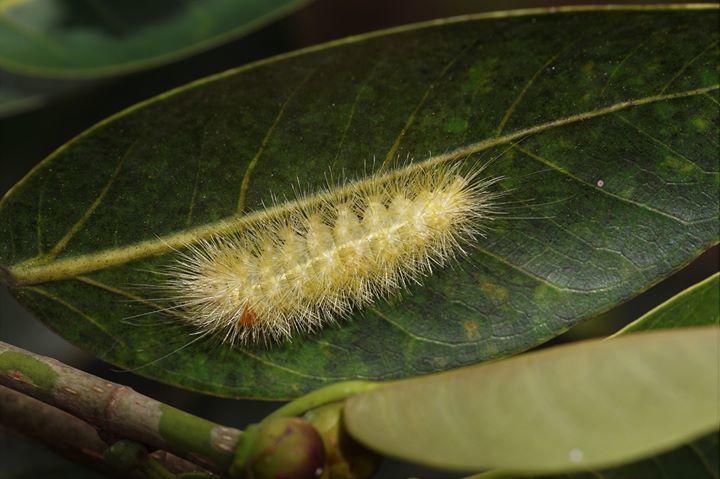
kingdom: Animalia
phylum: Arthropoda
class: Insecta
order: Lepidoptera
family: Erebidae
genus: Lymire
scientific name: Lymire edwardsii
